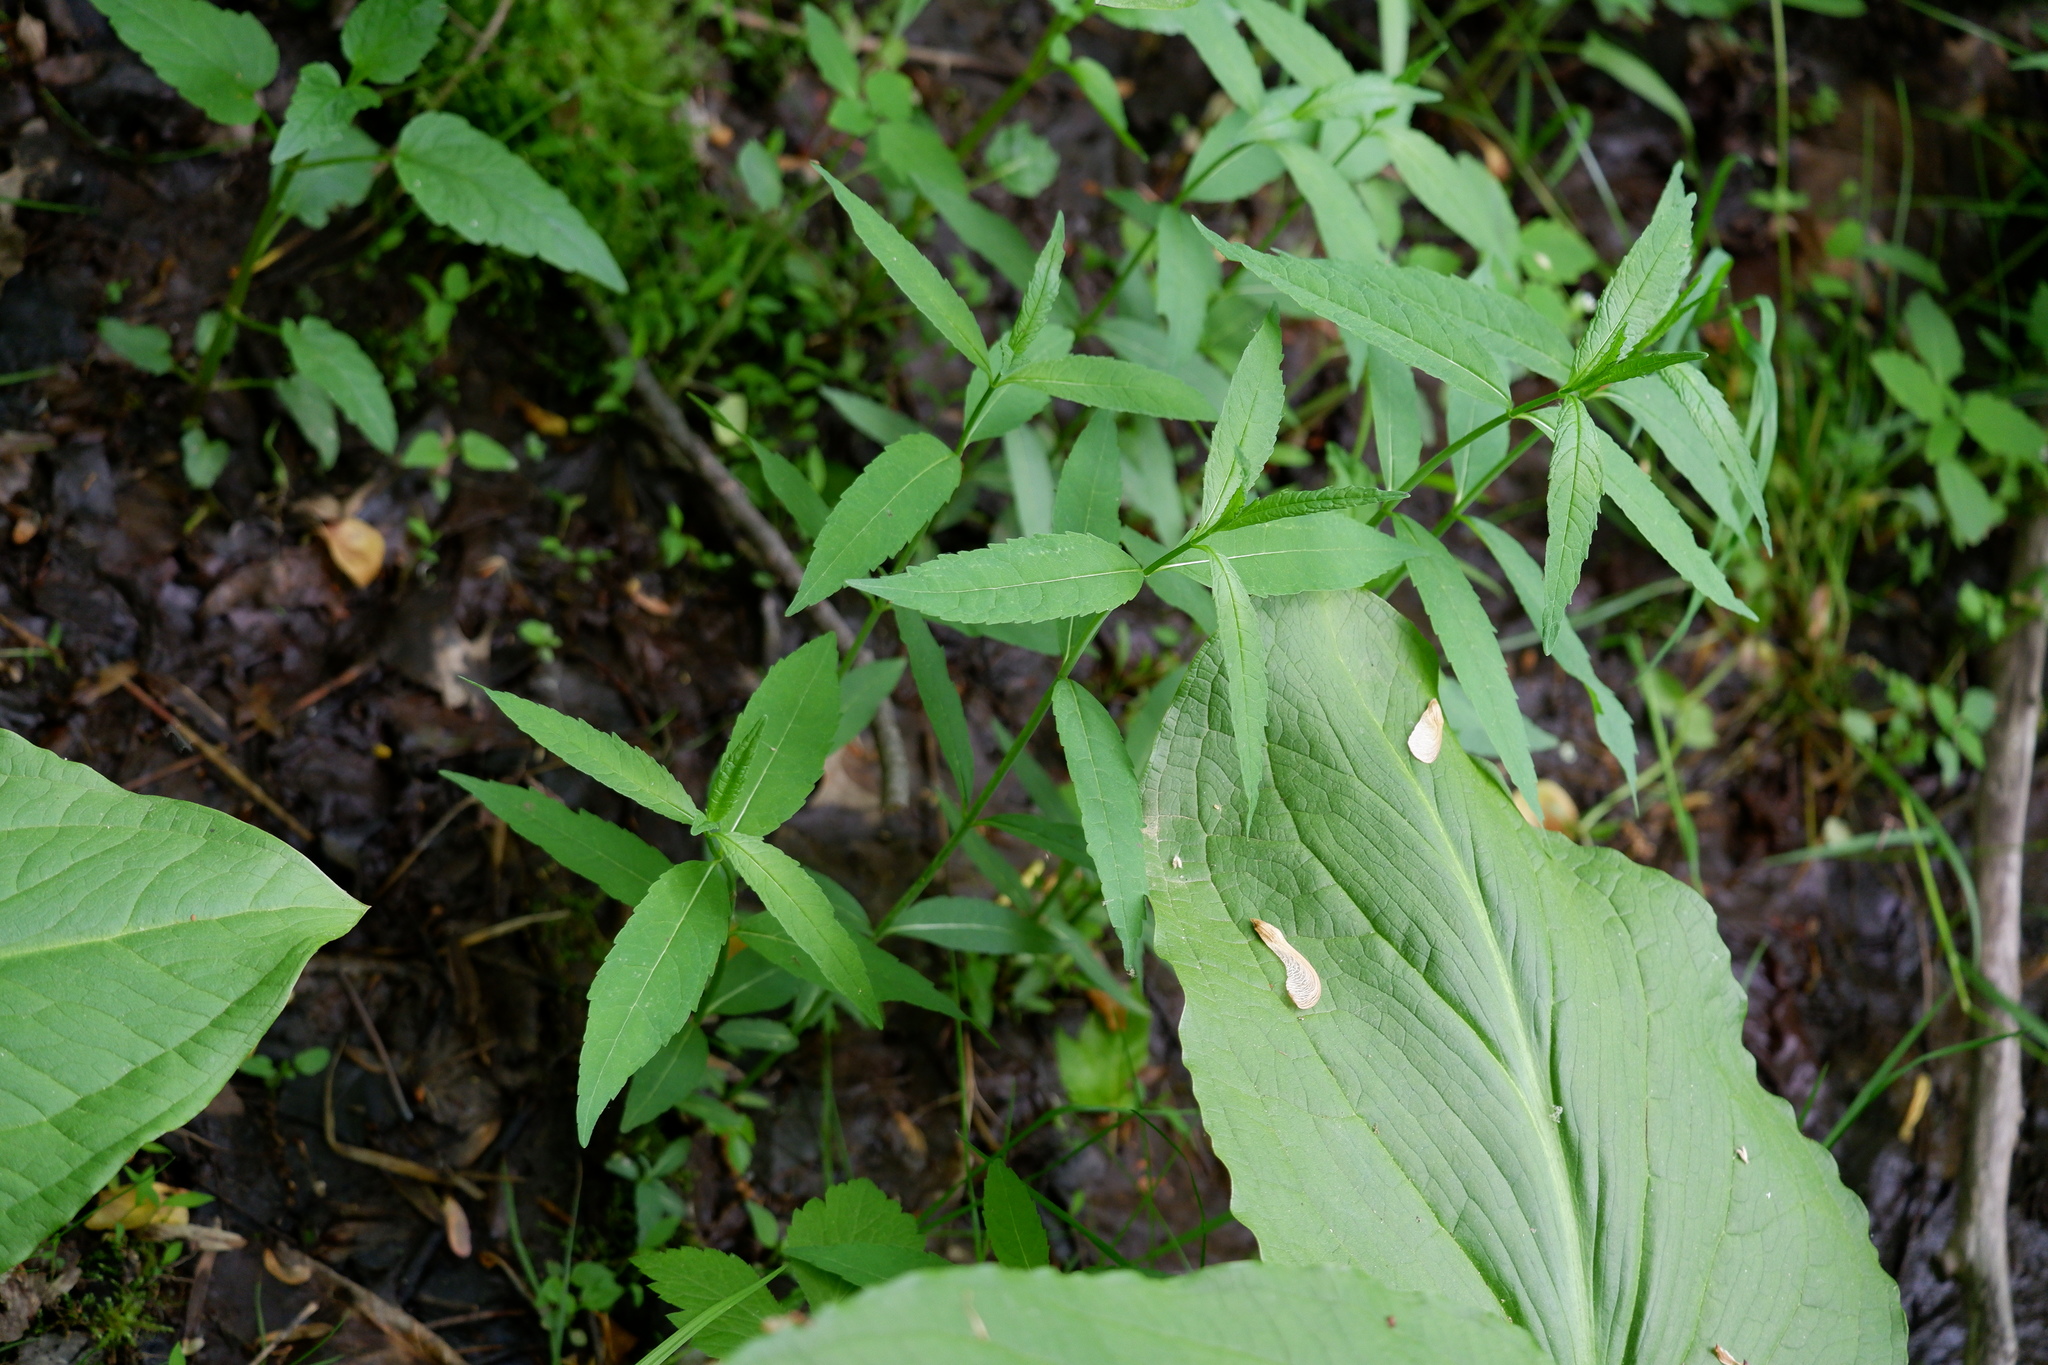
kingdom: Plantae
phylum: Tracheophyta
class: Magnoliopsida
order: Lamiales
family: Plantaginaceae
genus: Chelone
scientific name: Chelone glabra
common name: Snakehead
